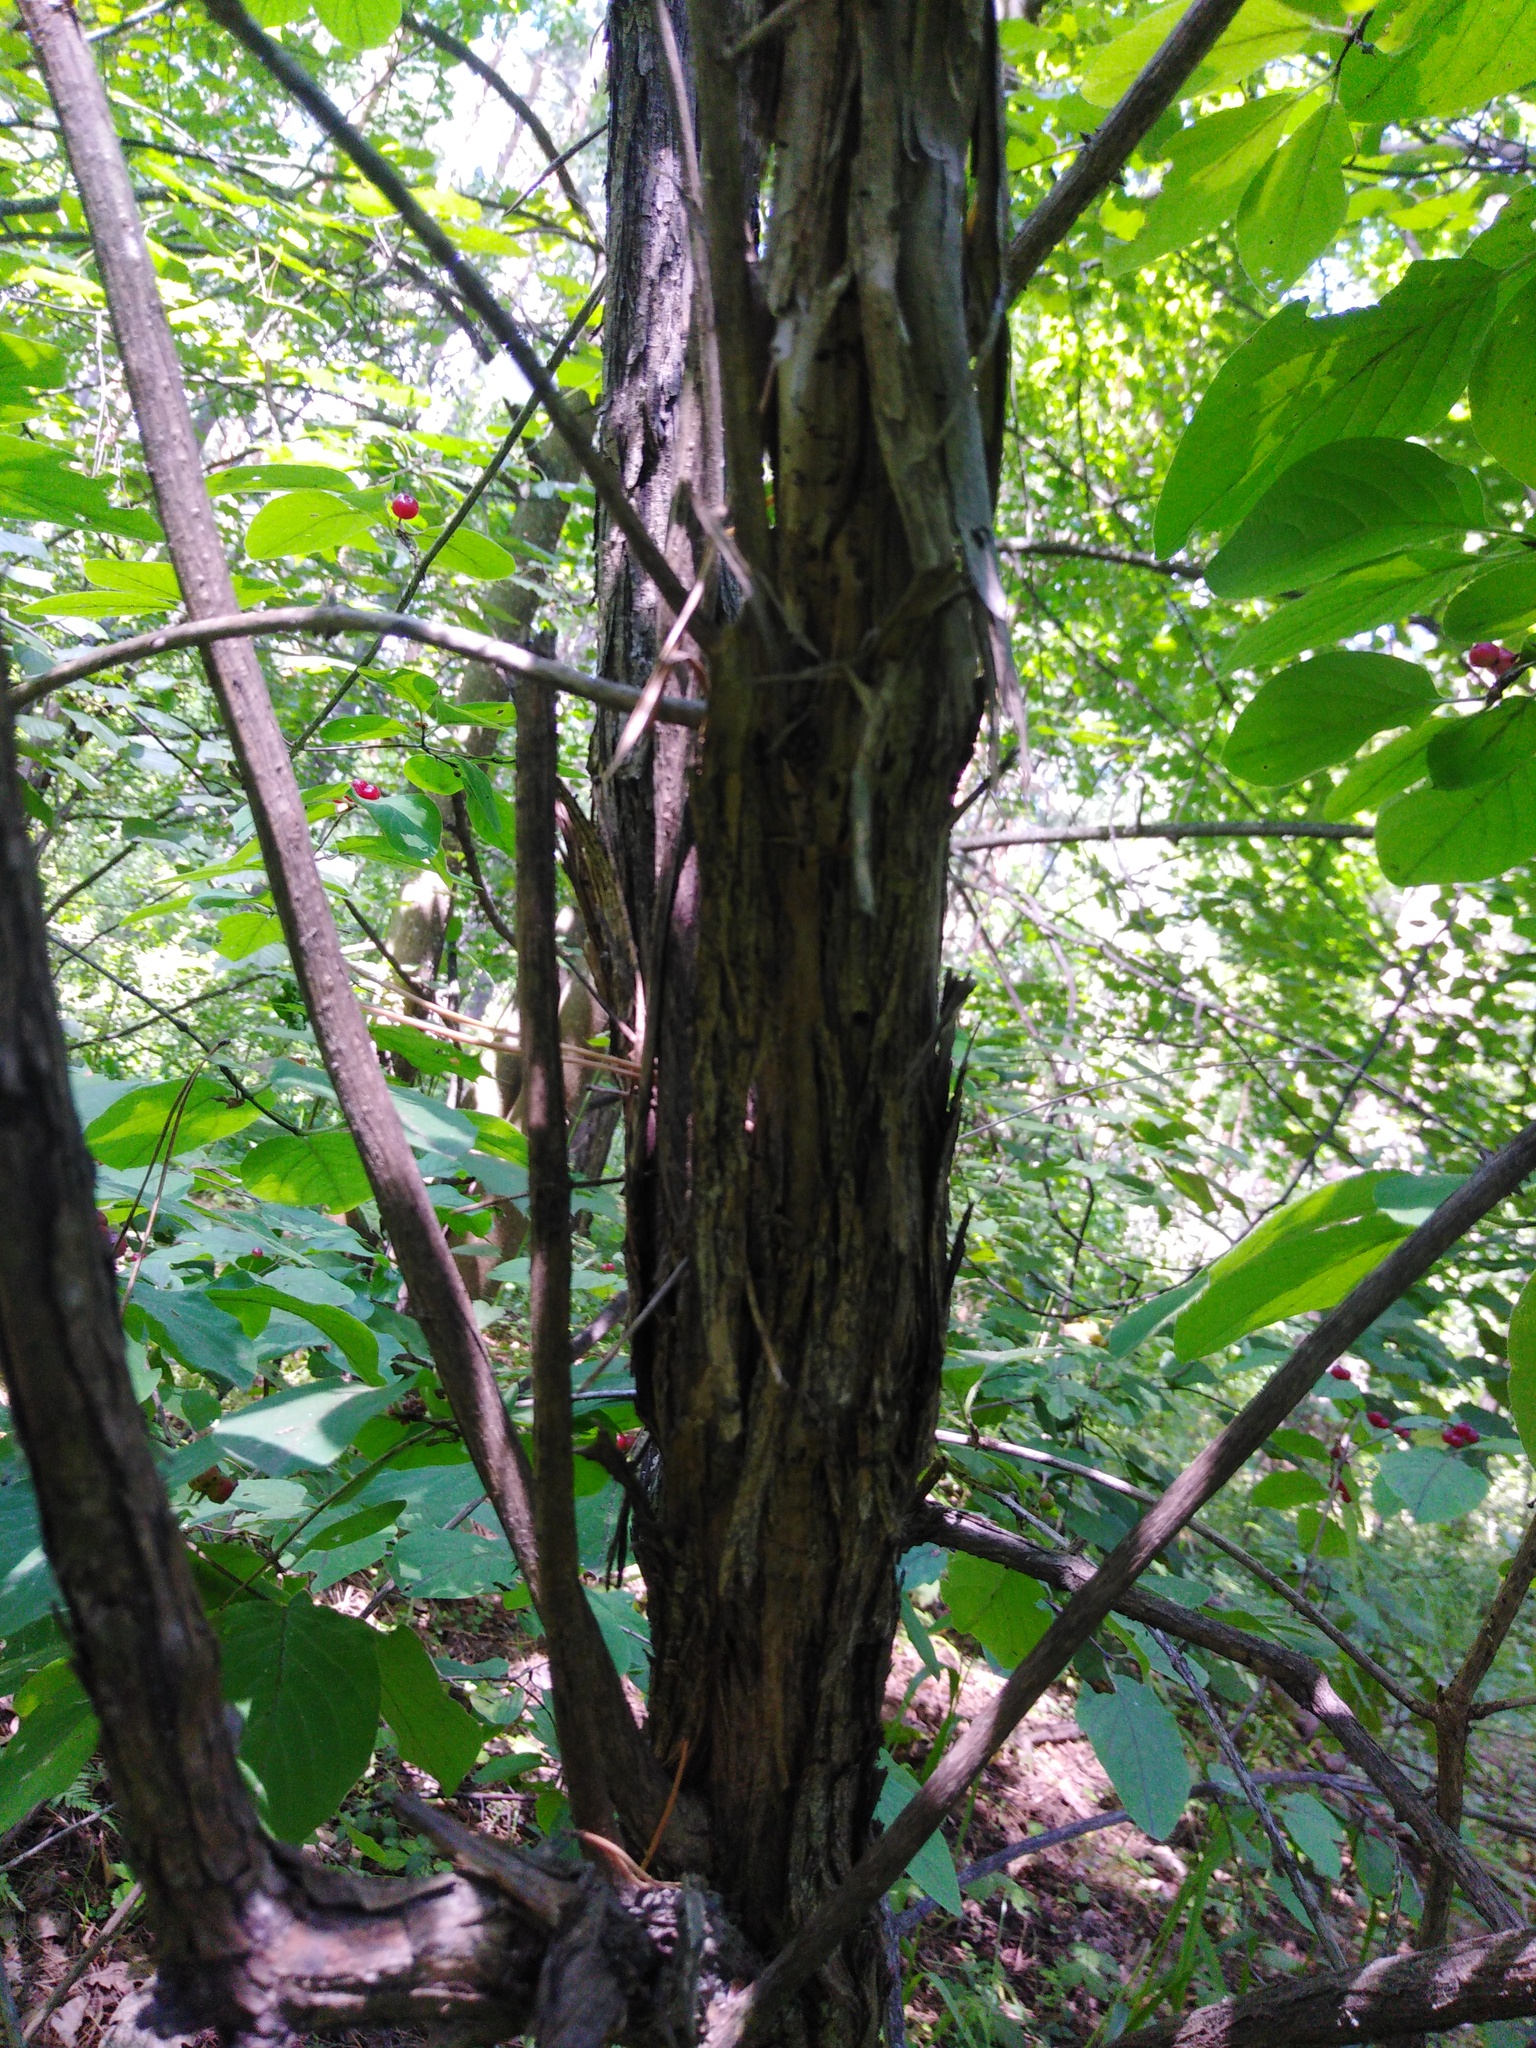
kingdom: Plantae
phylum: Tracheophyta
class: Magnoliopsida
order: Dipsacales
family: Caprifoliaceae
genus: Lonicera
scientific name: Lonicera xylosteum
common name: Fly honeysuckle
